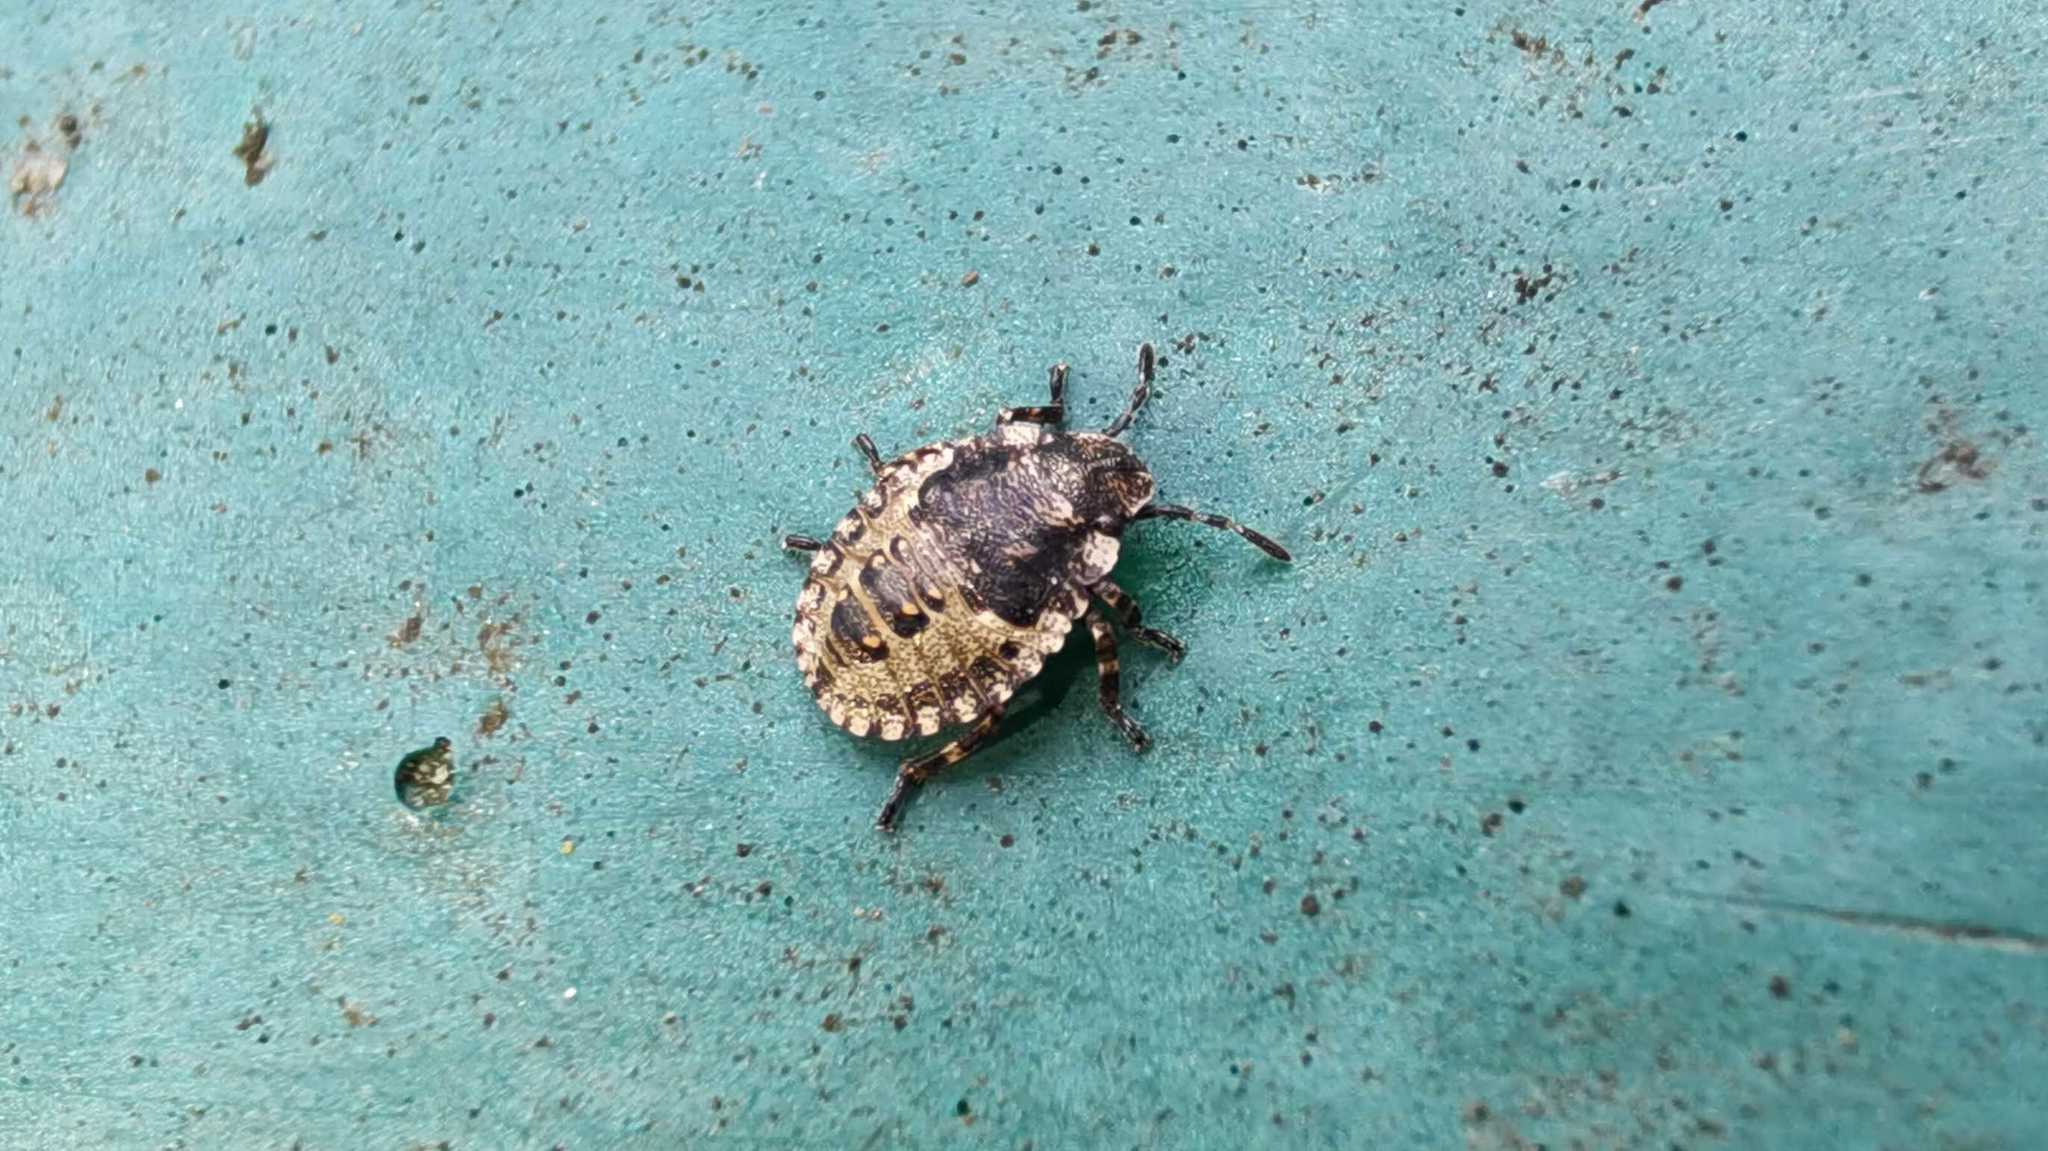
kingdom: Animalia
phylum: Arthropoda
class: Insecta
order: Hemiptera
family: Pentatomidae
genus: Pentatoma
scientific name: Pentatoma rufipes
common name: Forest bug
